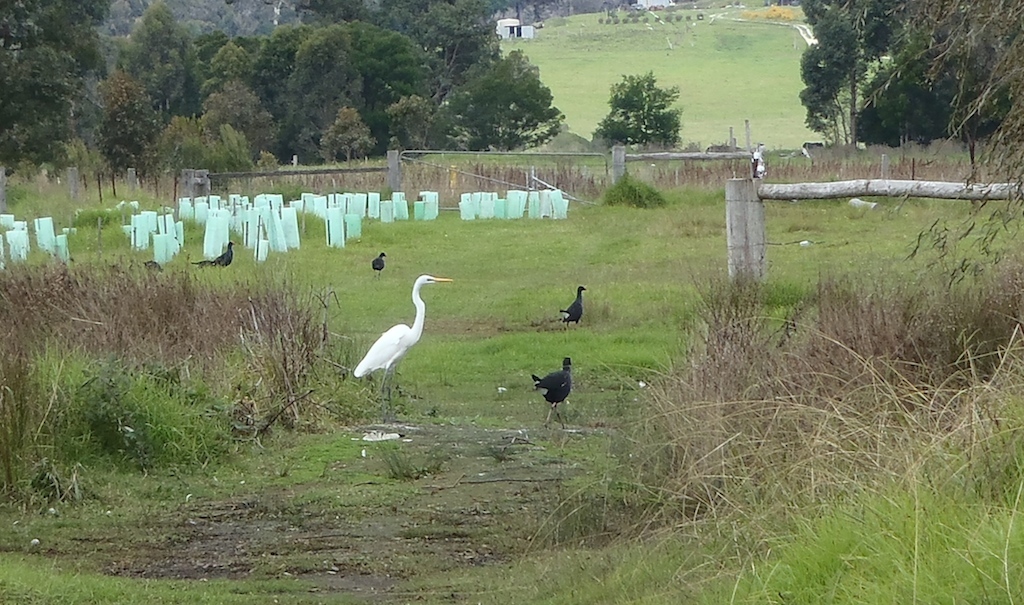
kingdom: Animalia
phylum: Chordata
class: Aves
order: Pelecaniformes
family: Ardeidae
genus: Ardea
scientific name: Ardea alba
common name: Great egret
